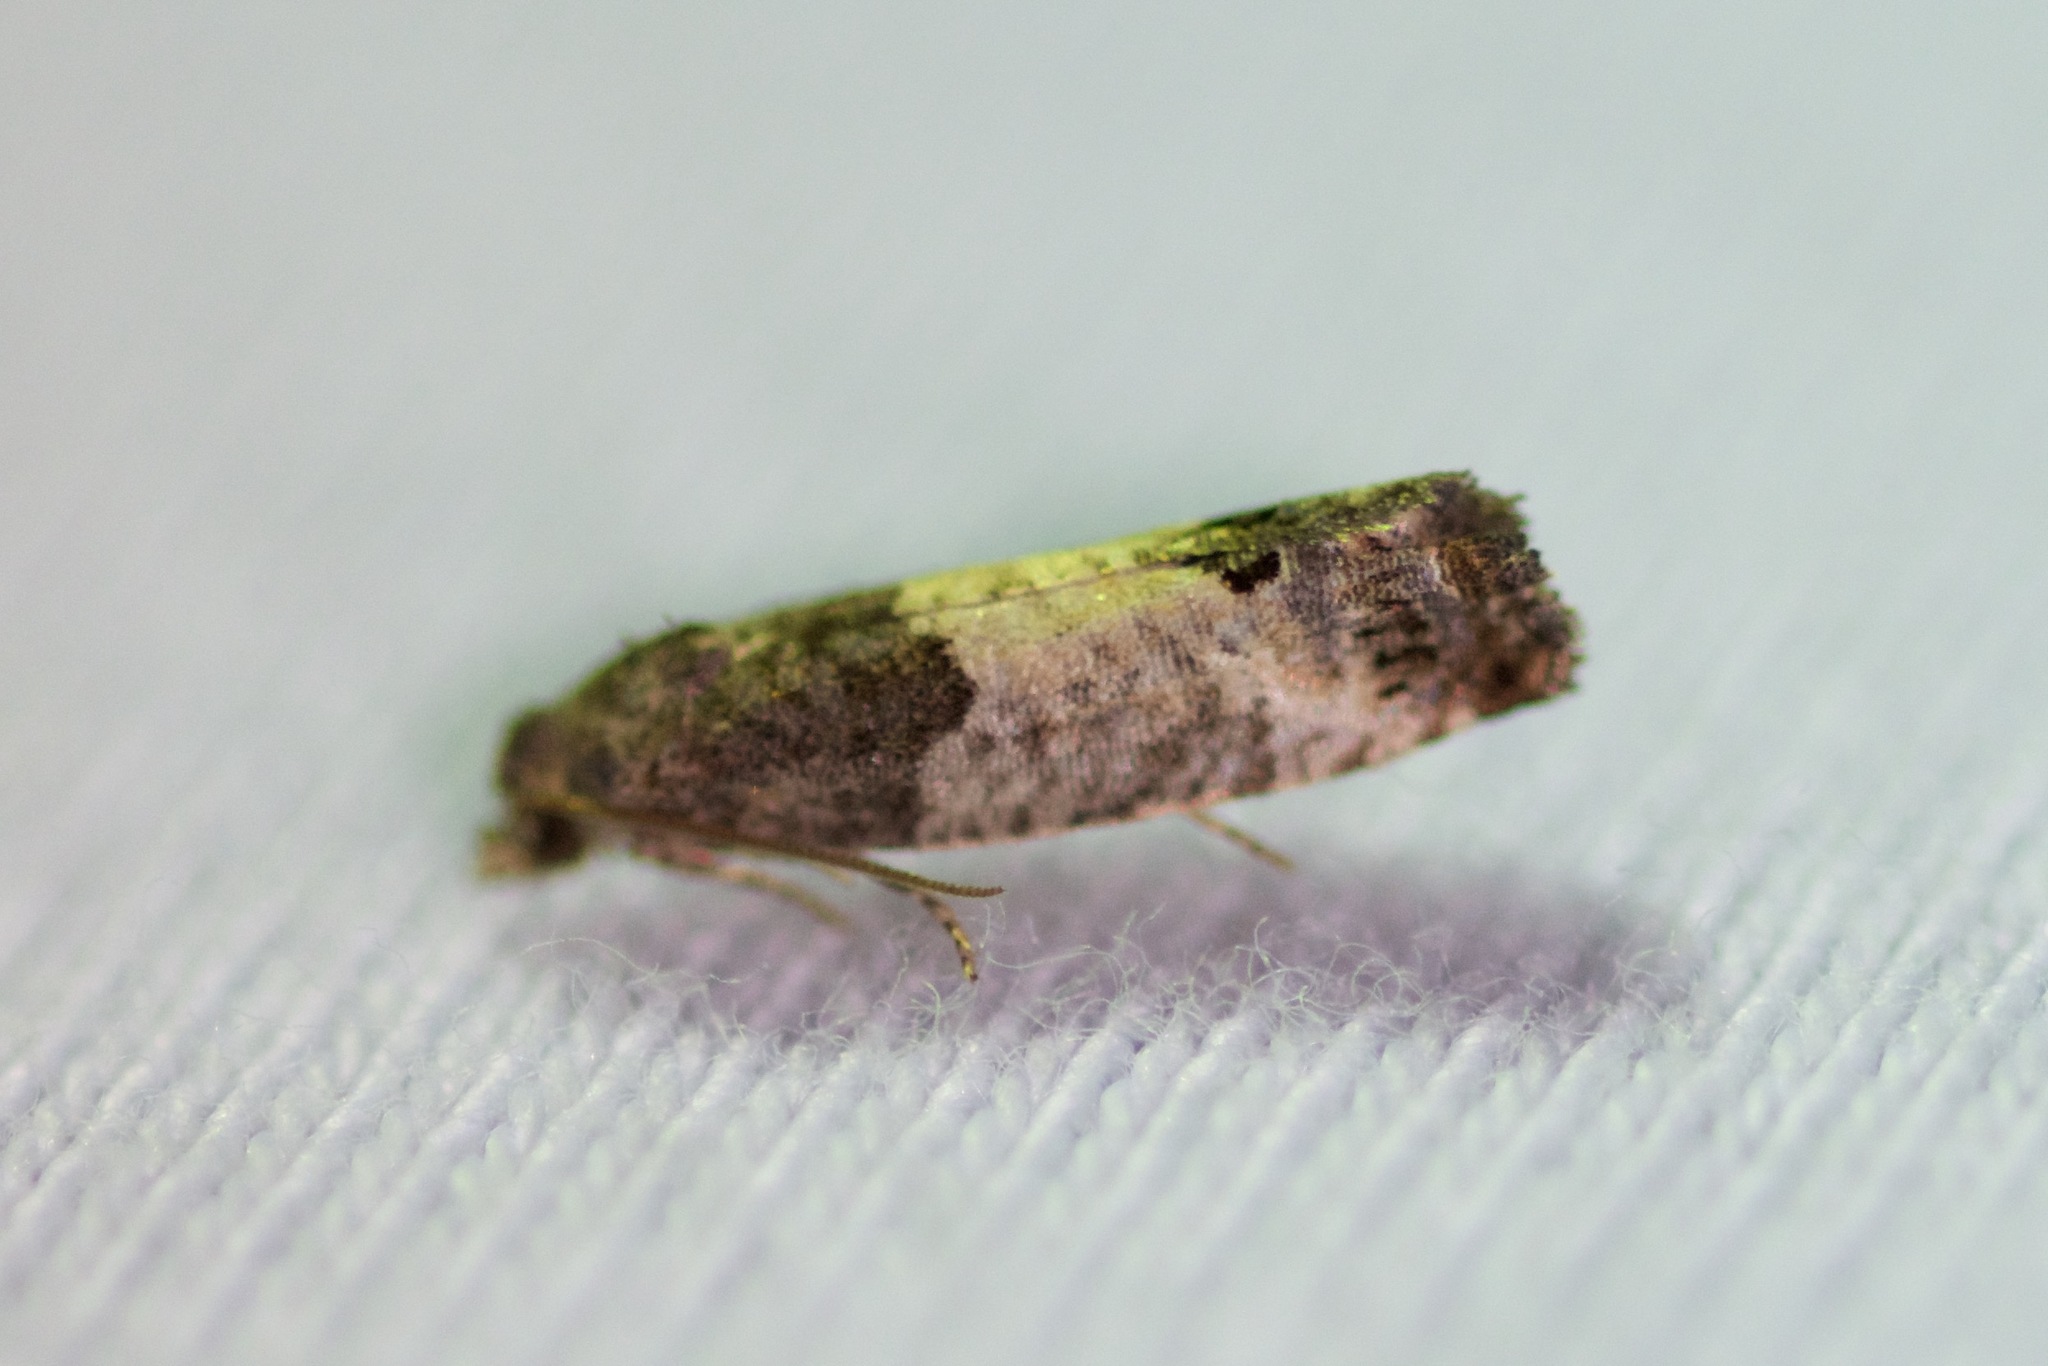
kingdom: Animalia
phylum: Arthropoda
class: Insecta
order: Lepidoptera
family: Tortricidae
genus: Spilonota
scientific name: Spilonota ocellana
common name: Bud moth
